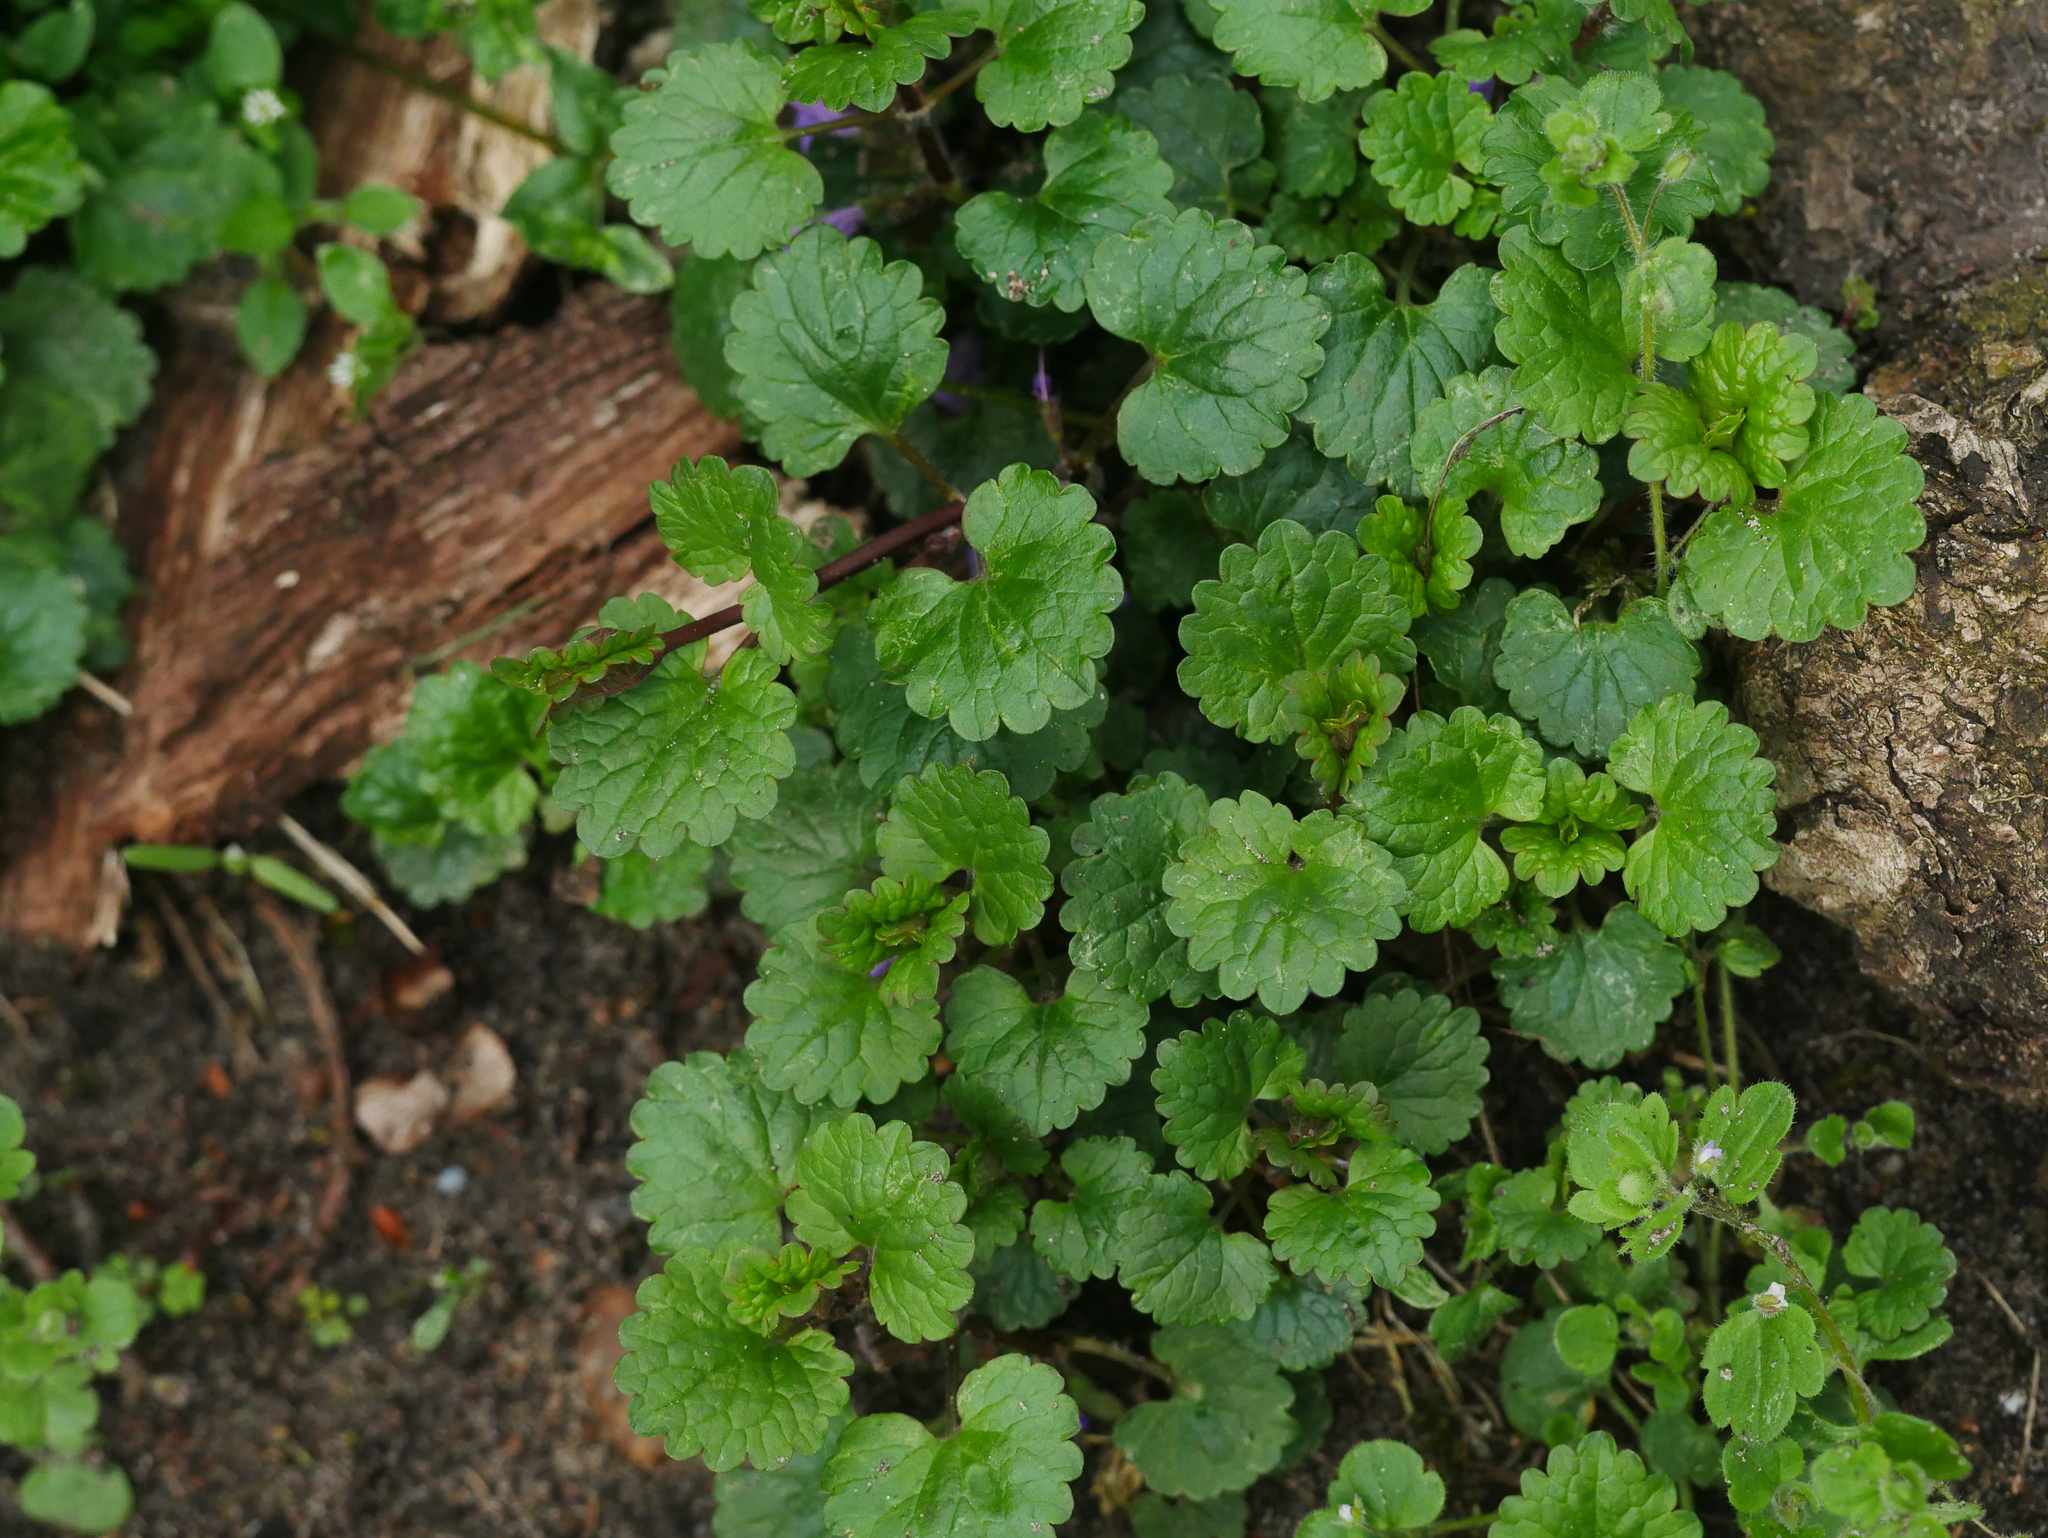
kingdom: Plantae
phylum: Tracheophyta
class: Magnoliopsida
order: Lamiales
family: Lamiaceae
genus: Glechoma
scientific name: Glechoma hederacea
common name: Ground ivy
